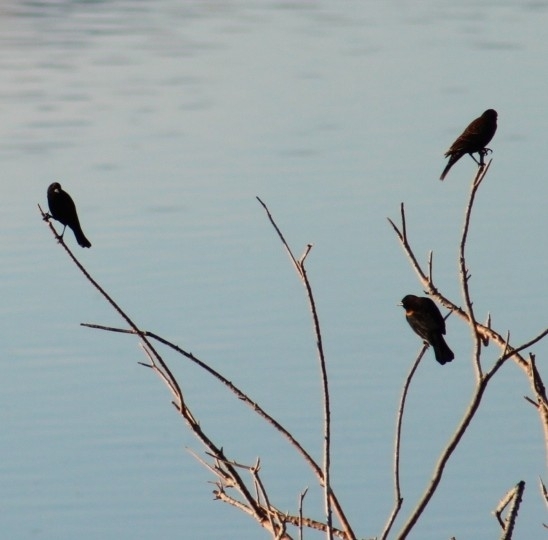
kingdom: Animalia
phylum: Chordata
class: Aves
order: Passeriformes
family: Icteridae
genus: Agelaius
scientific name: Agelaius phoeniceus
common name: Red-winged blackbird
